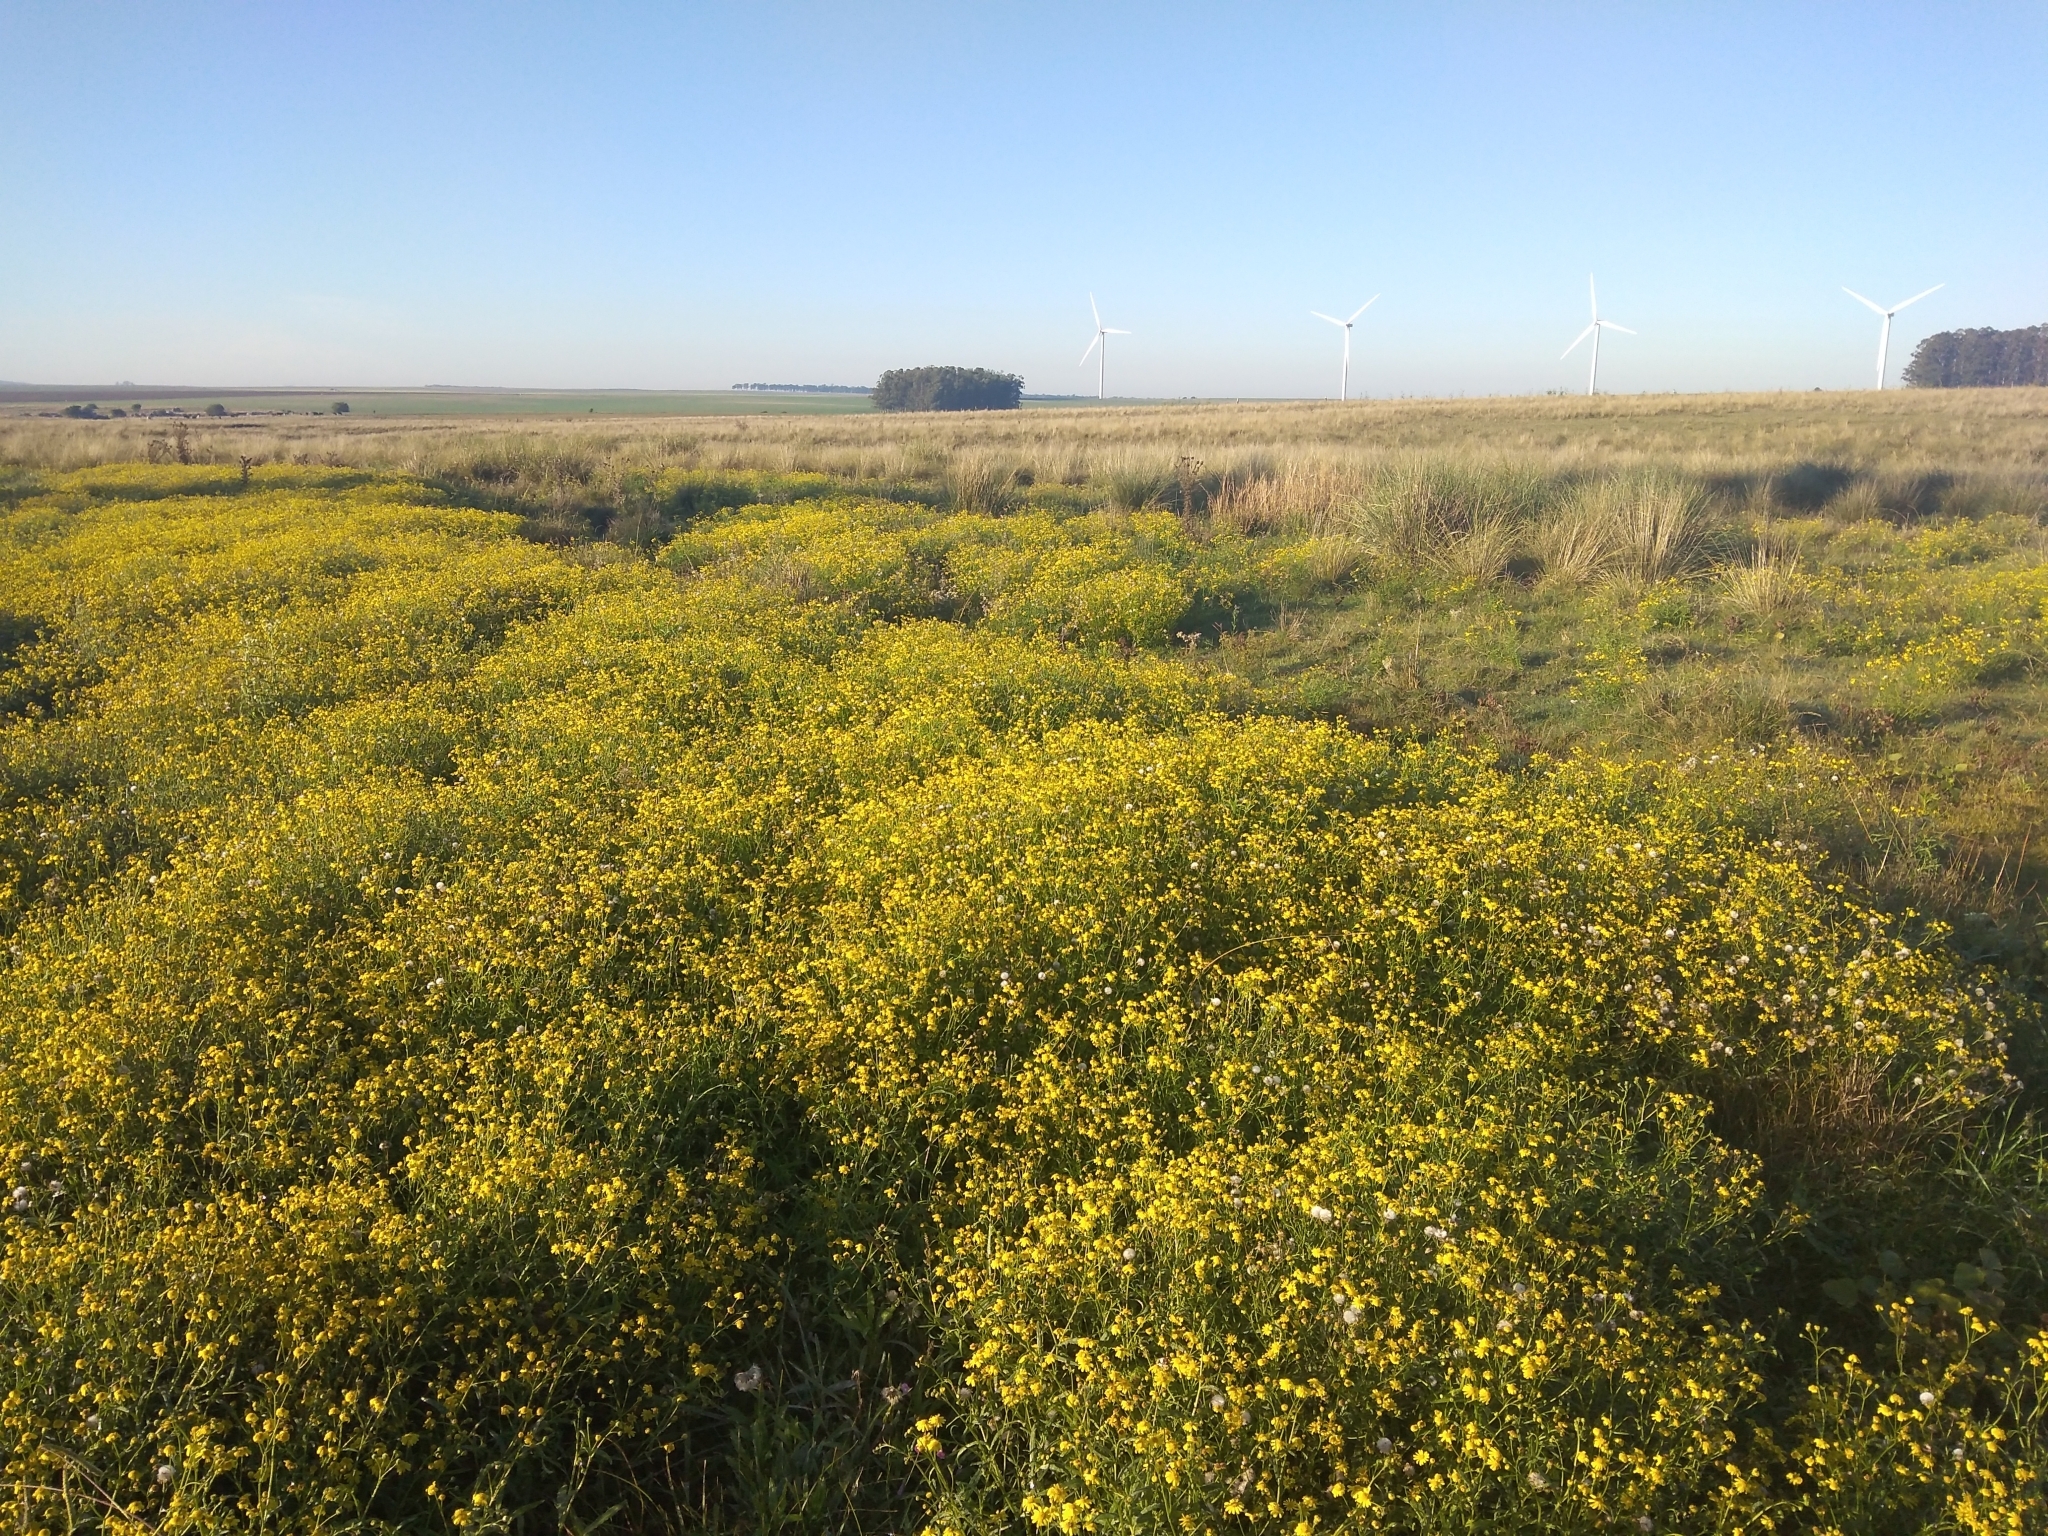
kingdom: Plantae
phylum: Tracheophyta
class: Magnoliopsida
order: Asterales
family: Asteraceae
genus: Senecio
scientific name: Senecio madagascariensis
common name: Madagascar ragwort
